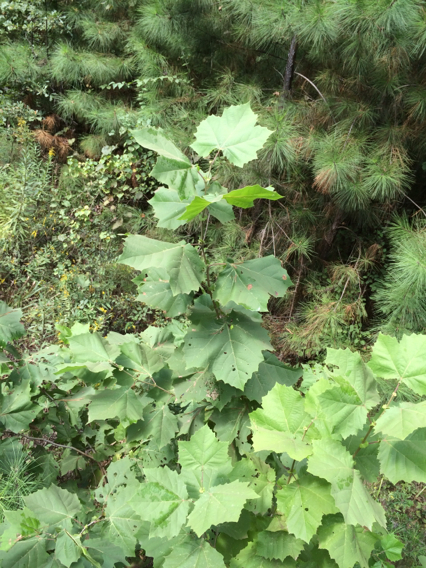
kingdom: Plantae
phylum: Tracheophyta
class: Magnoliopsida
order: Proteales
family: Platanaceae
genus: Platanus
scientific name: Platanus occidentalis
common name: American sycamore
